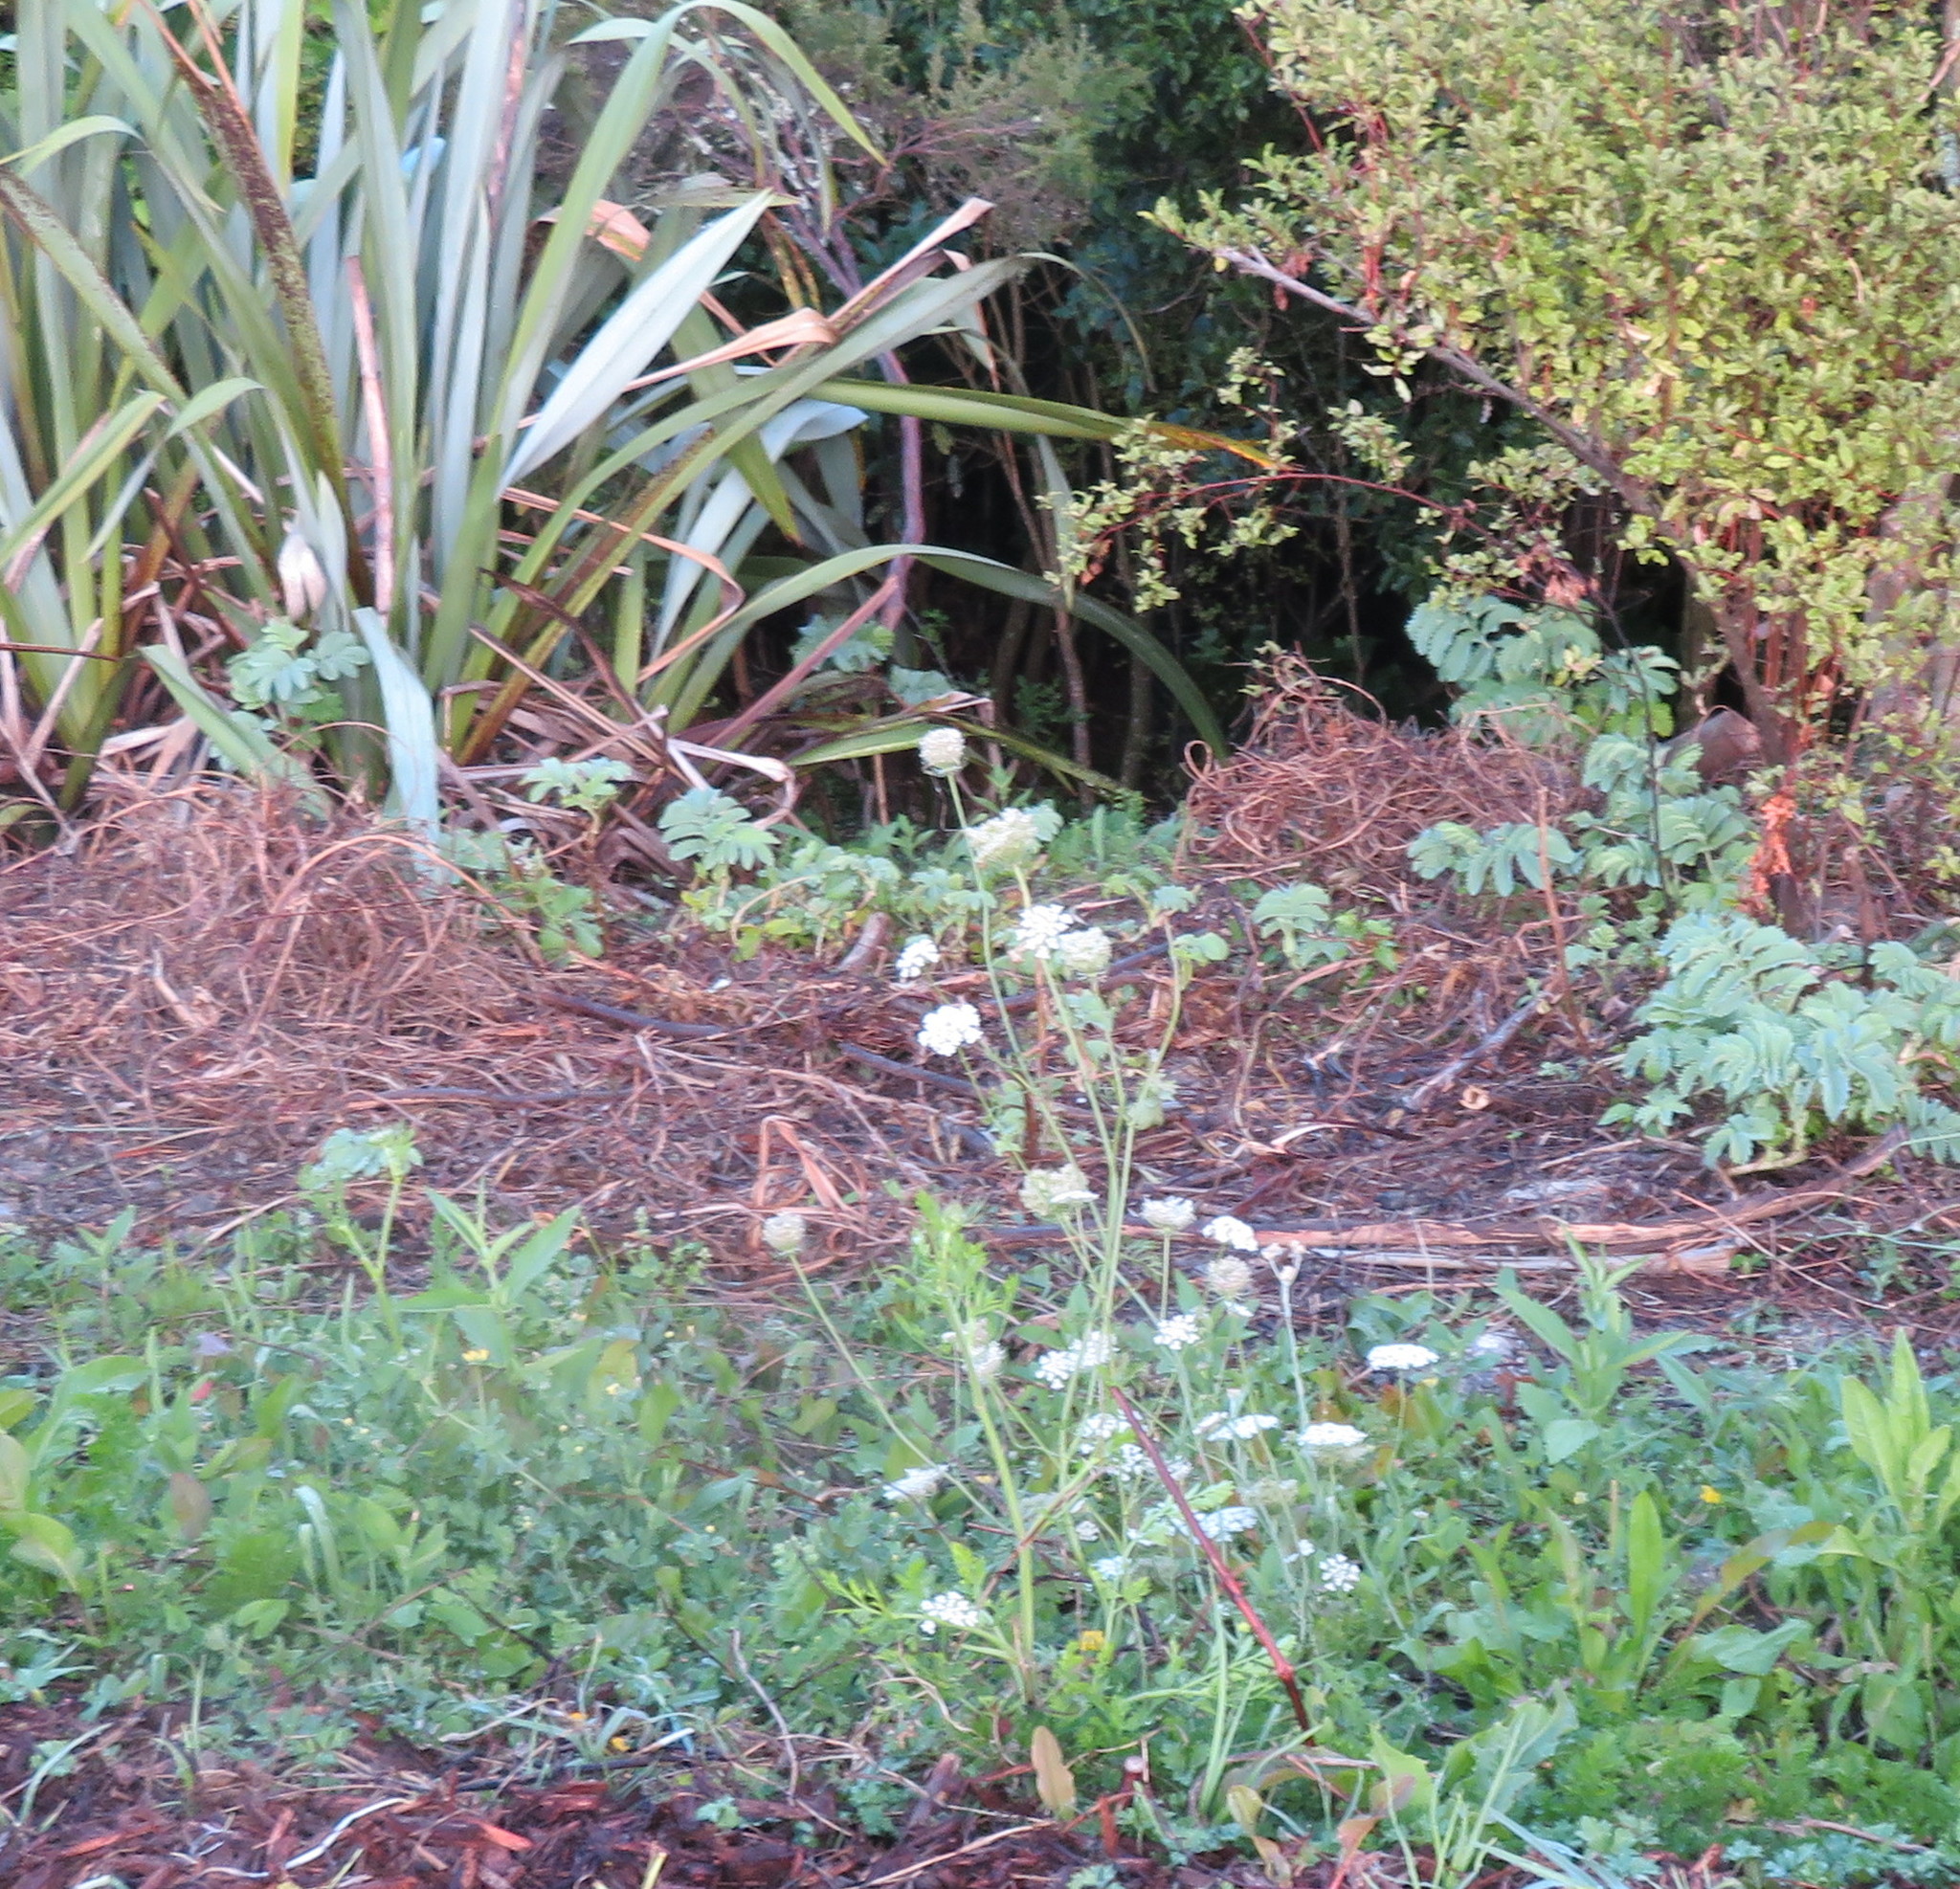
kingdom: Plantae
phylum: Tracheophyta
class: Magnoliopsida
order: Apiales
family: Apiaceae
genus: Daucus
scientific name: Daucus carota
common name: Wild carrot
